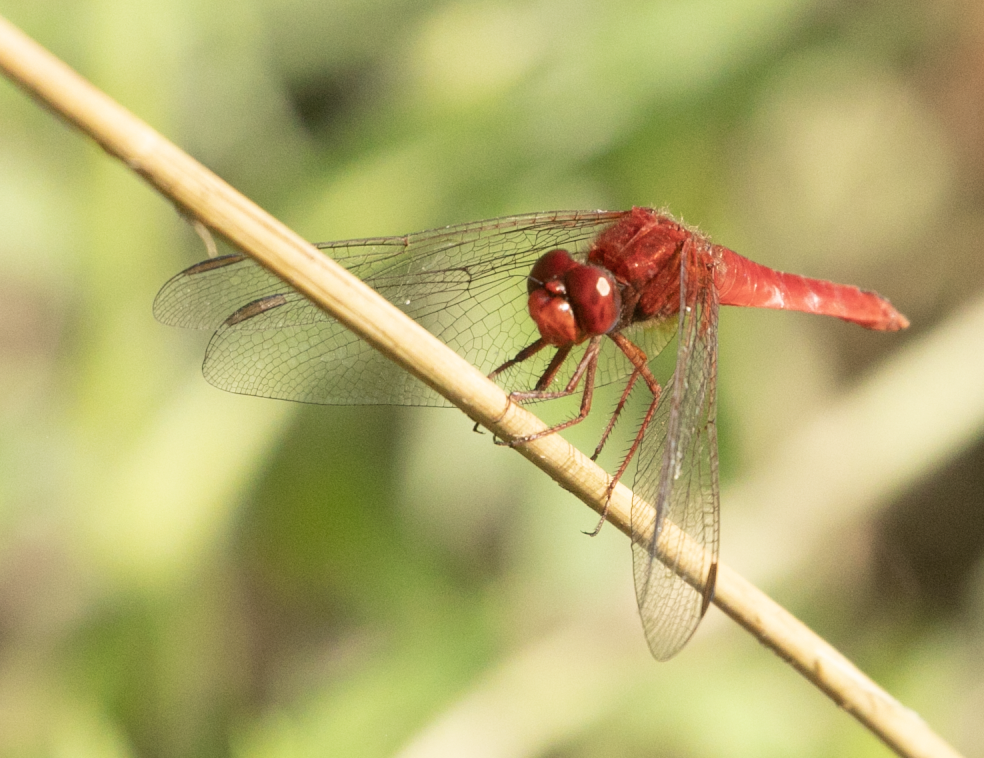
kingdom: Animalia
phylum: Arthropoda
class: Insecta
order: Odonata
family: Libellulidae
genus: Crocothemis
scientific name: Crocothemis erythraea
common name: Scarlet dragonfly
